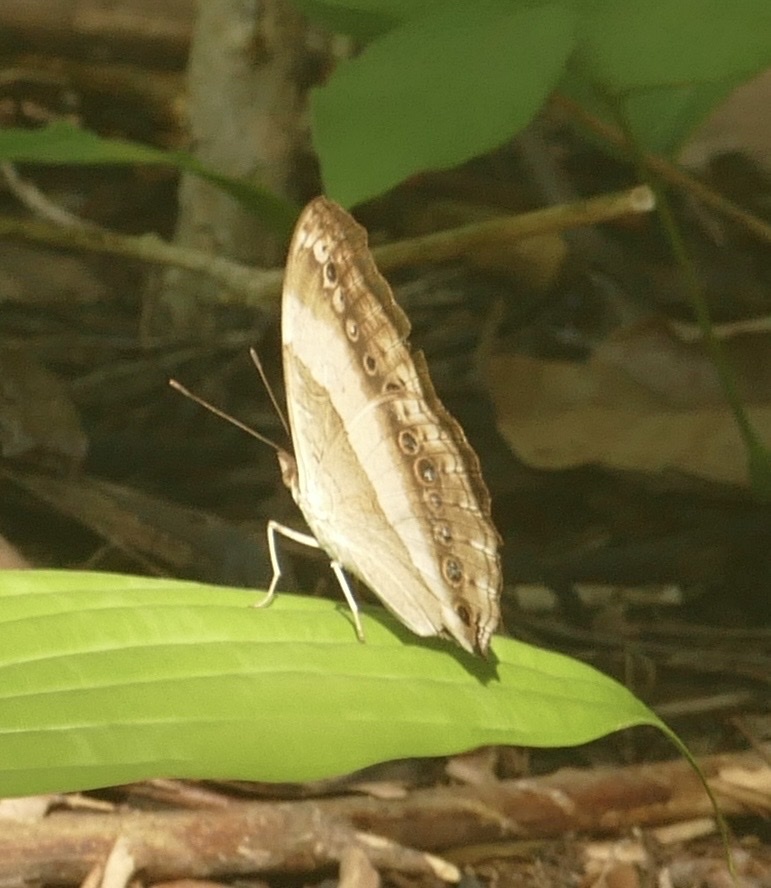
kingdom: Animalia
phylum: Arthropoda
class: Insecta
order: Lepidoptera
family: Nymphalidae
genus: Yoma
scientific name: Yoma algina
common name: New guinea lurcher
